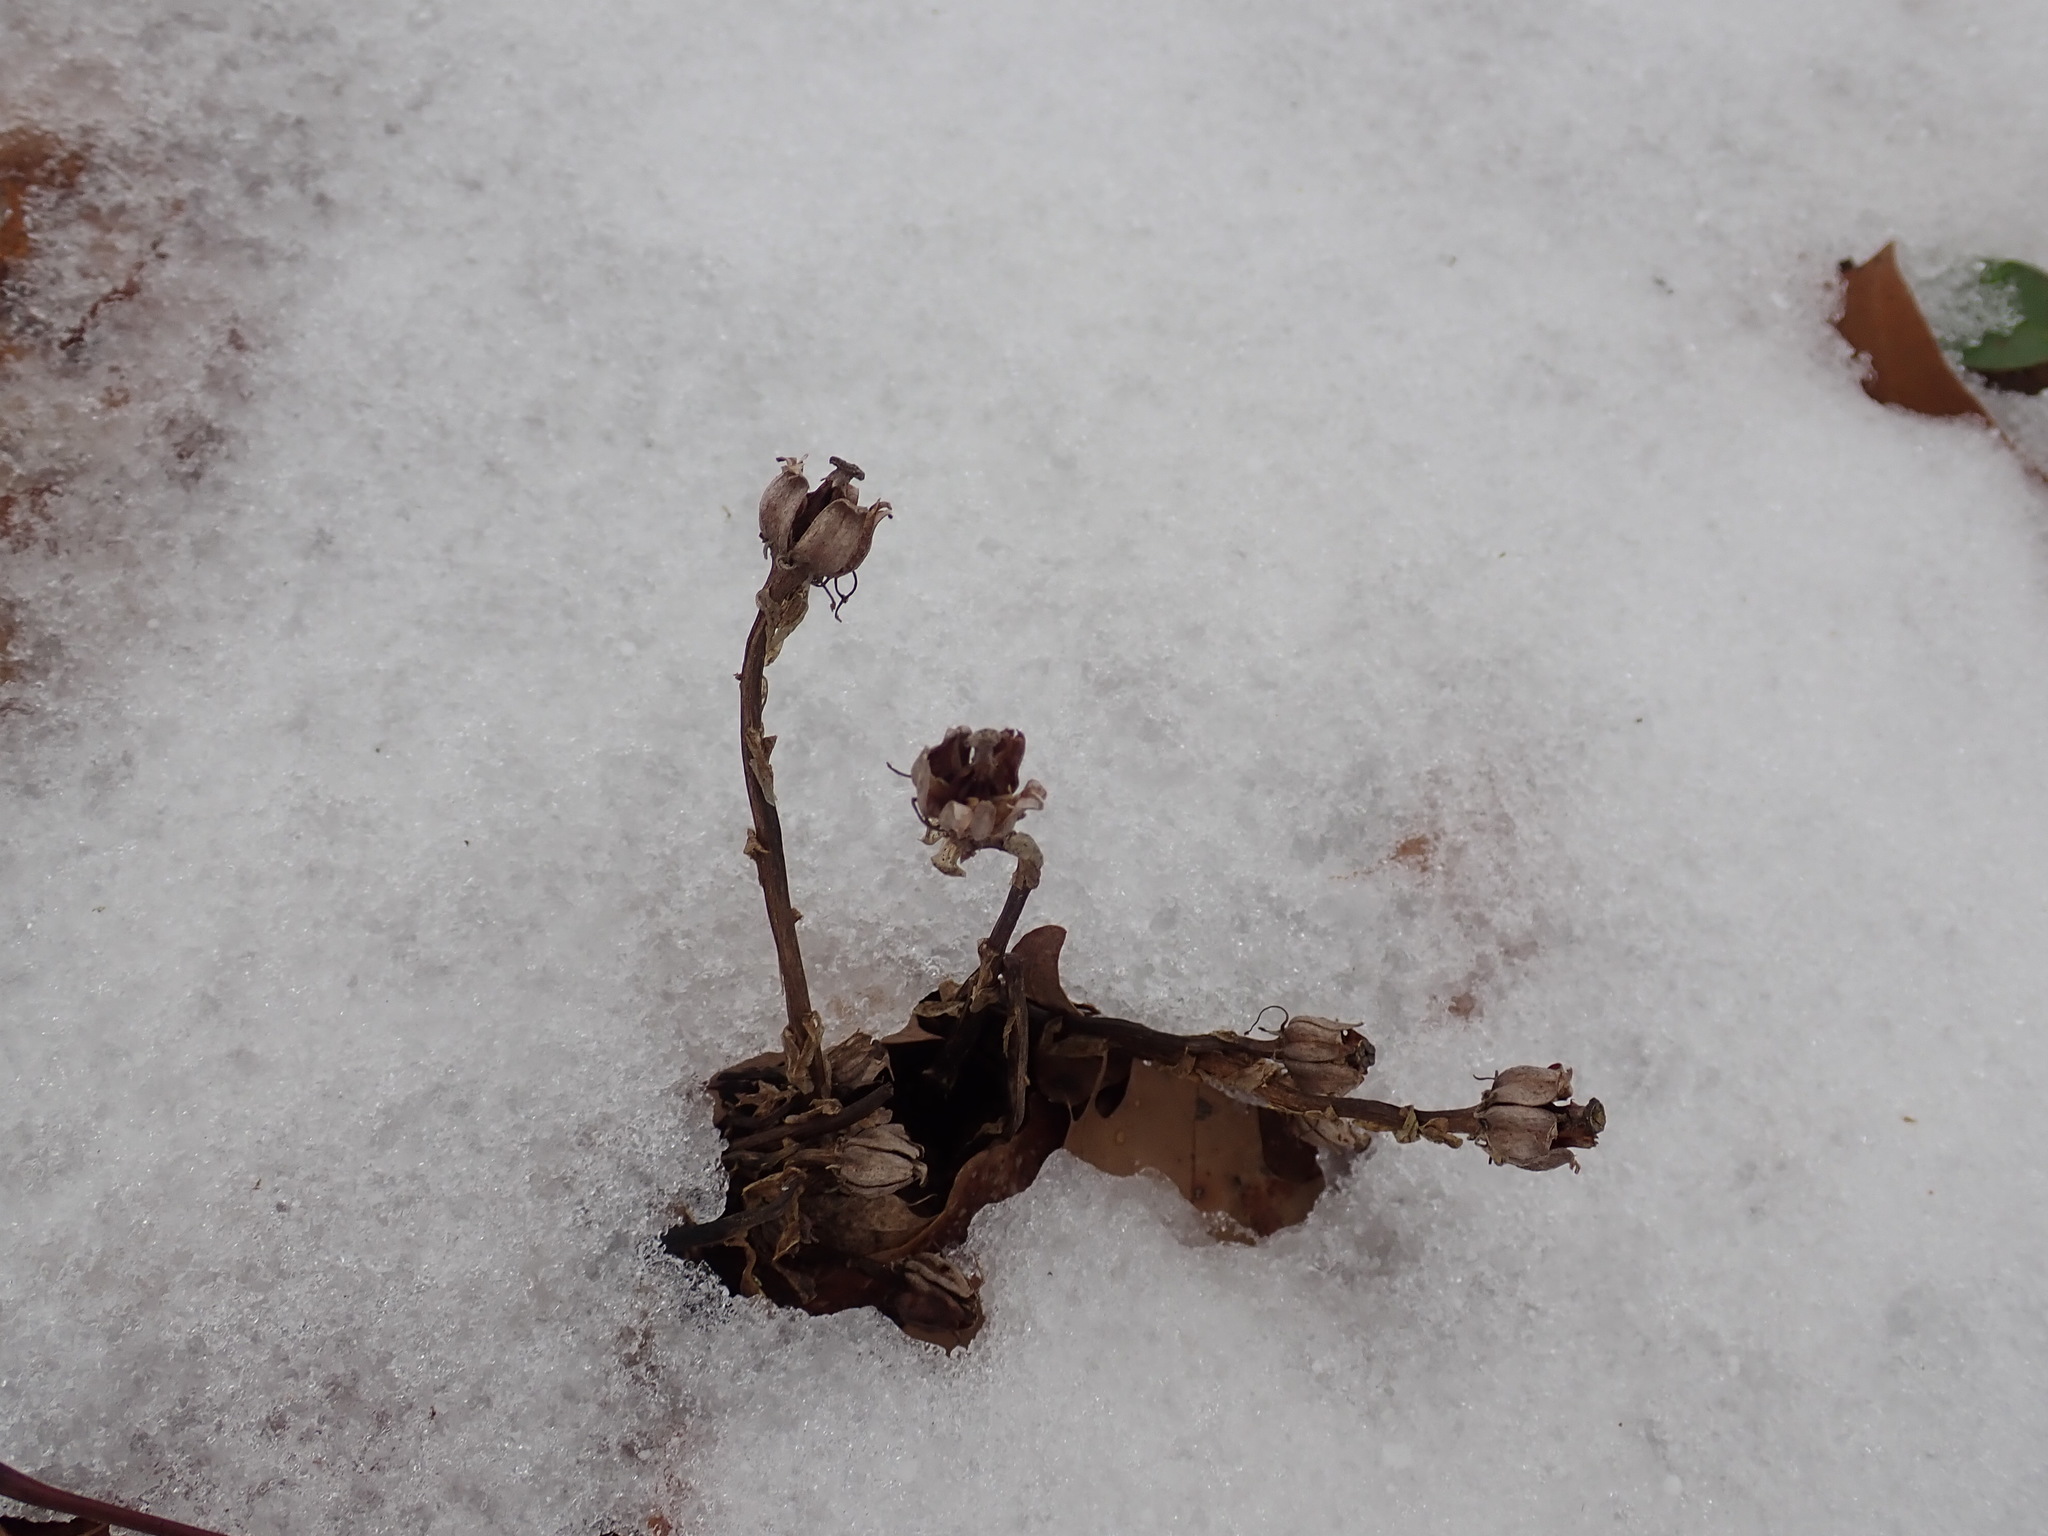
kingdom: Plantae
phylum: Tracheophyta
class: Magnoliopsida
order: Ericales
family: Ericaceae
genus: Monotropa
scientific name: Monotropa uniflora
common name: Convulsion root
